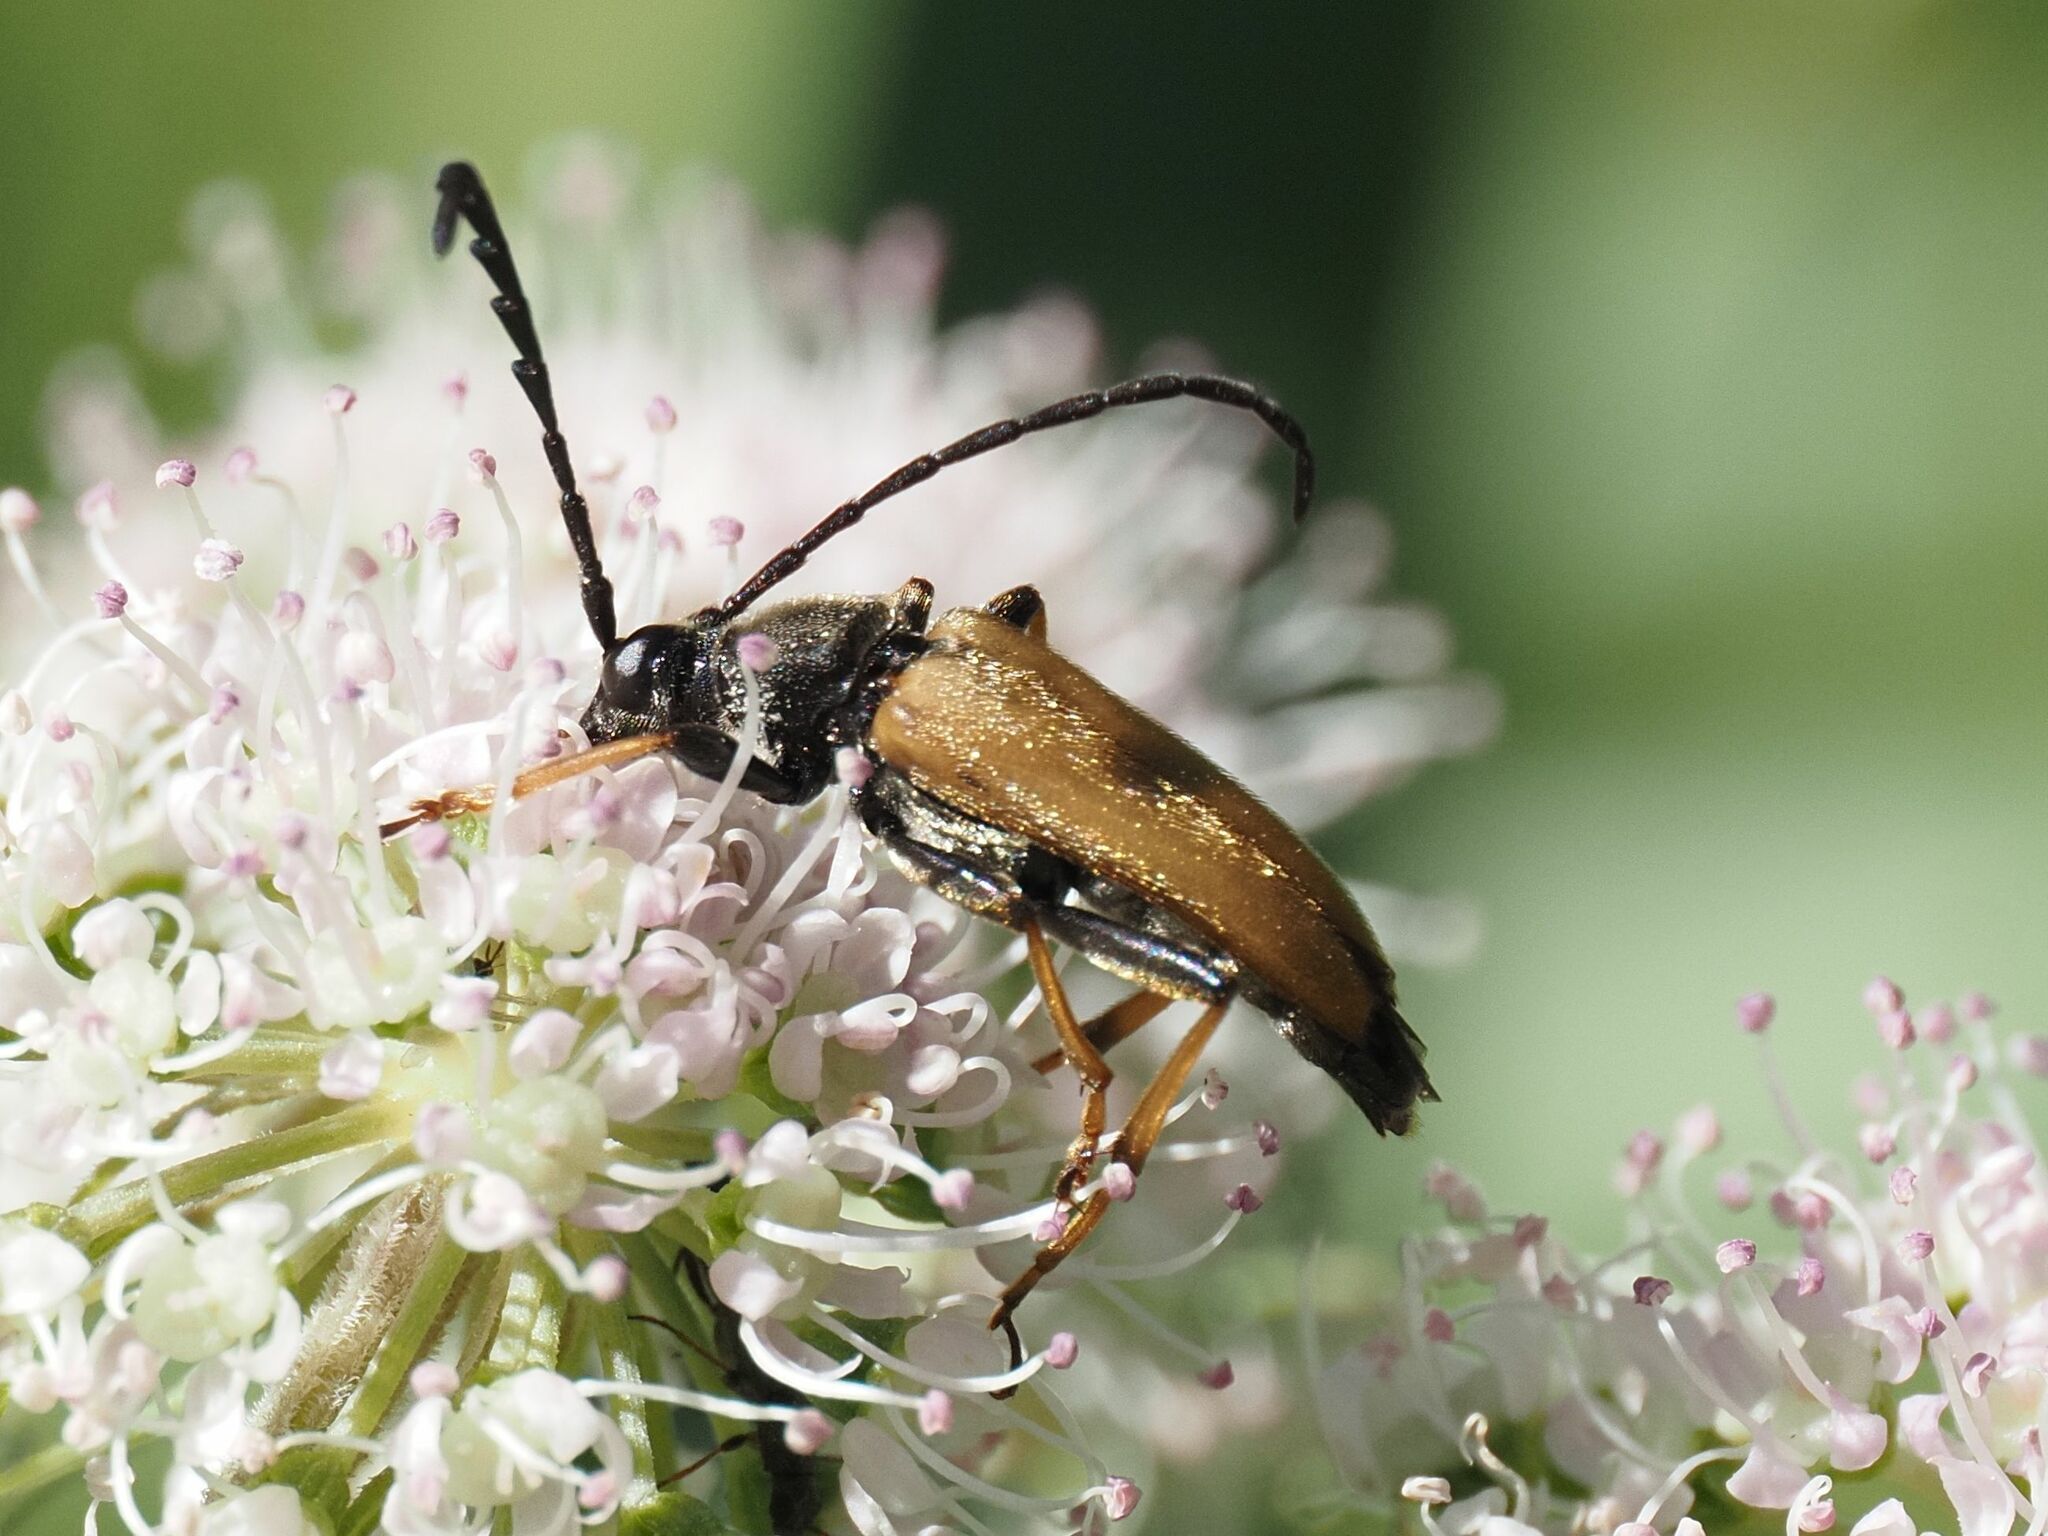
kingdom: Animalia
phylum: Arthropoda
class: Insecta
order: Coleoptera
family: Cerambycidae
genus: Stictoleptura
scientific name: Stictoleptura rubra
